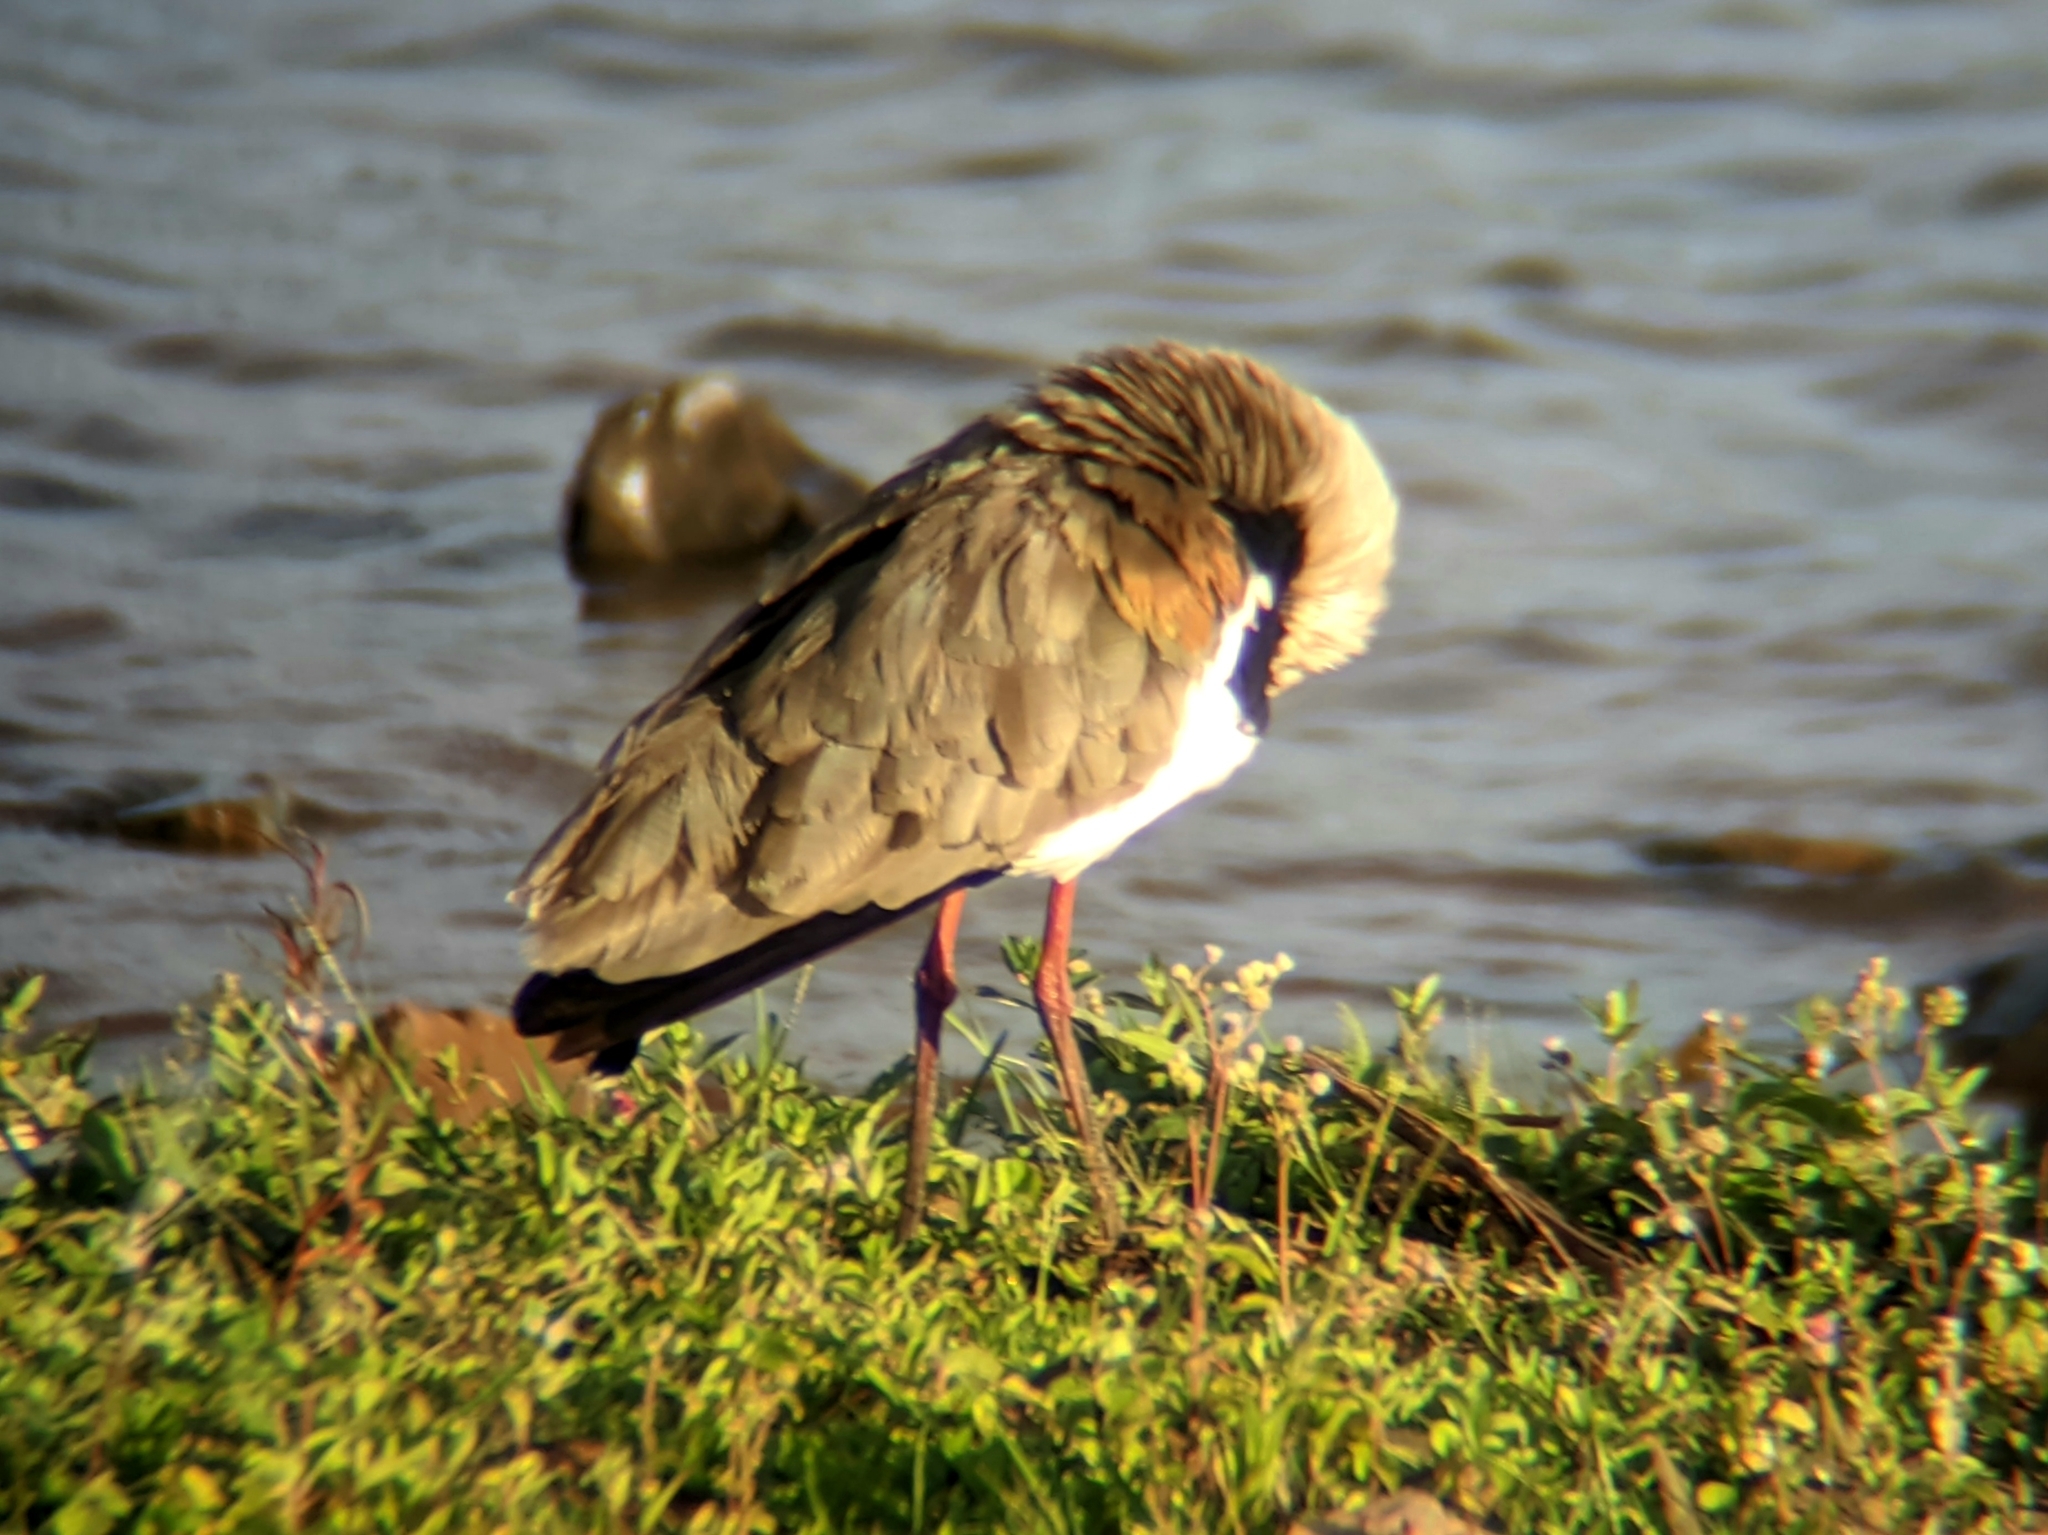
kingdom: Animalia
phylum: Chordata
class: Aves
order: Charadriiformes
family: Charadriidae
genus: Vanellus
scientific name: Vanellus chilensis
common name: Southern lapwing
